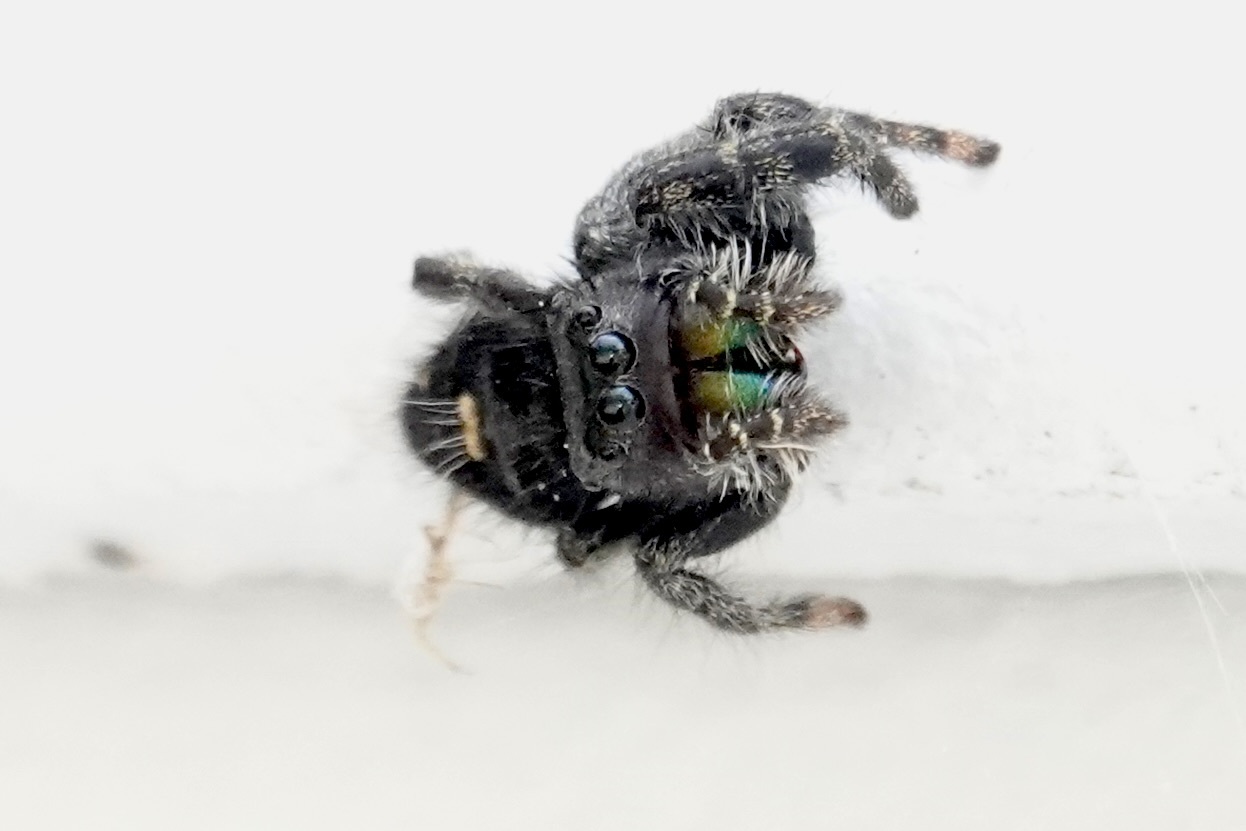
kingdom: Animalia
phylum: Arthropoda
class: Arachnida
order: Araneae
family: Salticidae
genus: Phidippus
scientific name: Phidippus audax
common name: Bold jumper
